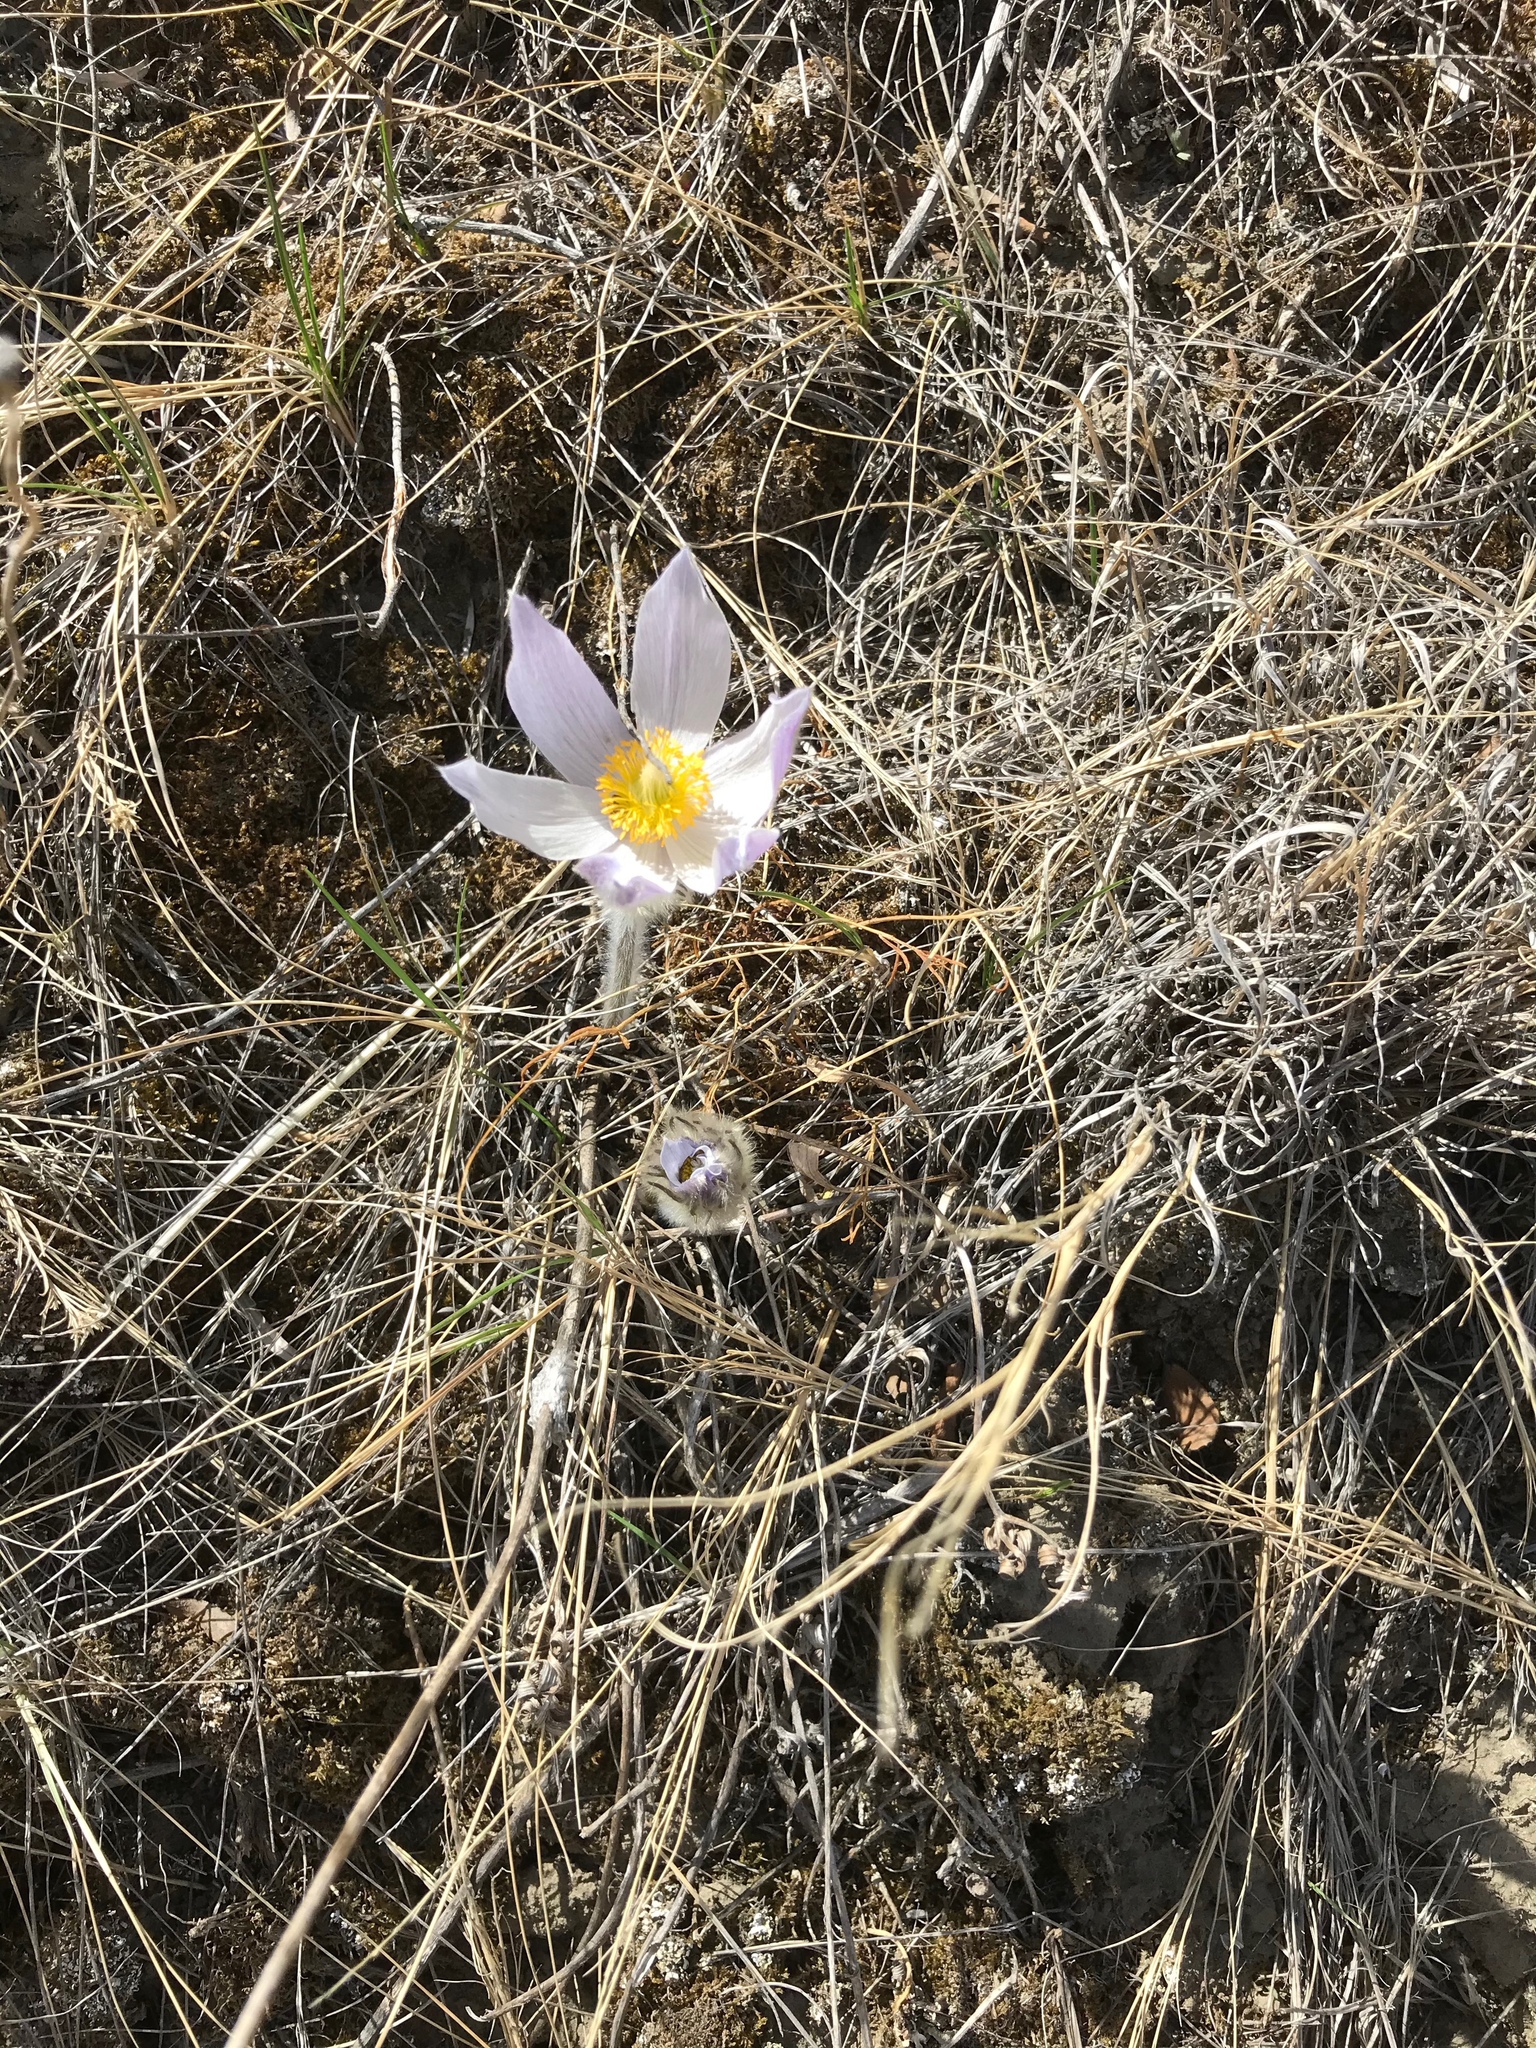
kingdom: Plantae
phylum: Tracheophyta
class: Magnoliopsida
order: Ranunculales
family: Ranunculaceae
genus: Pulsatilla
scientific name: Pulsatilla nuttalliana
